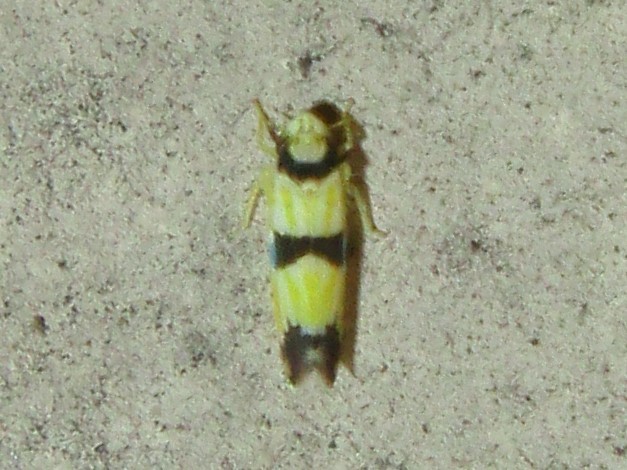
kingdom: Animalia
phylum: Arthropoda
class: Insecta
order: Hemiptera
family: Cicadellidae
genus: Erythroneura
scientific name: Erythroneura calycula
